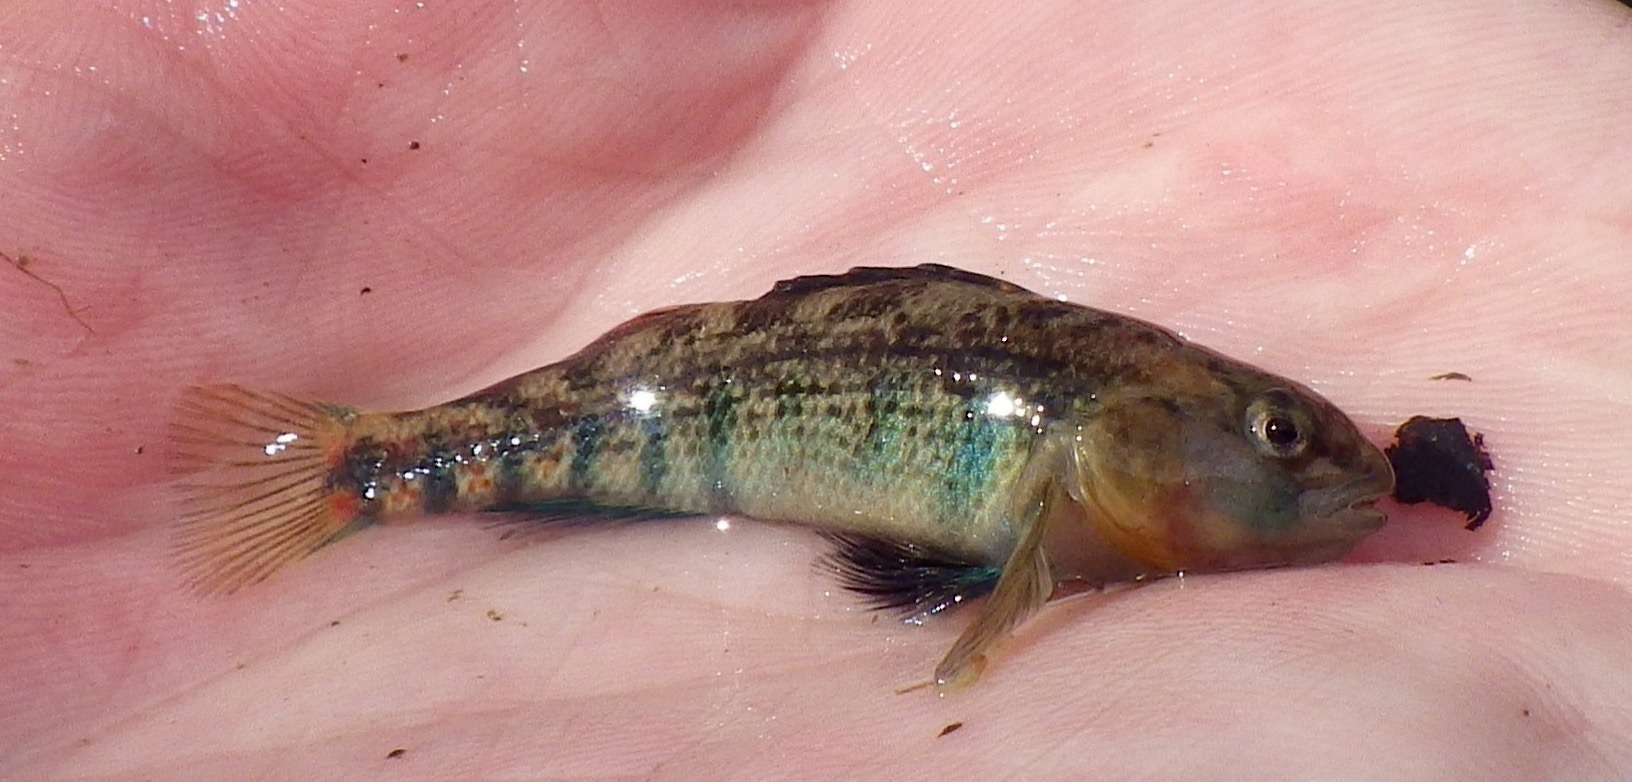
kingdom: Animalia
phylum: Chordata
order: Perciformes
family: Percidae
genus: Etheostoma
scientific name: Etheostoma spectabile
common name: Orangethroat darter
